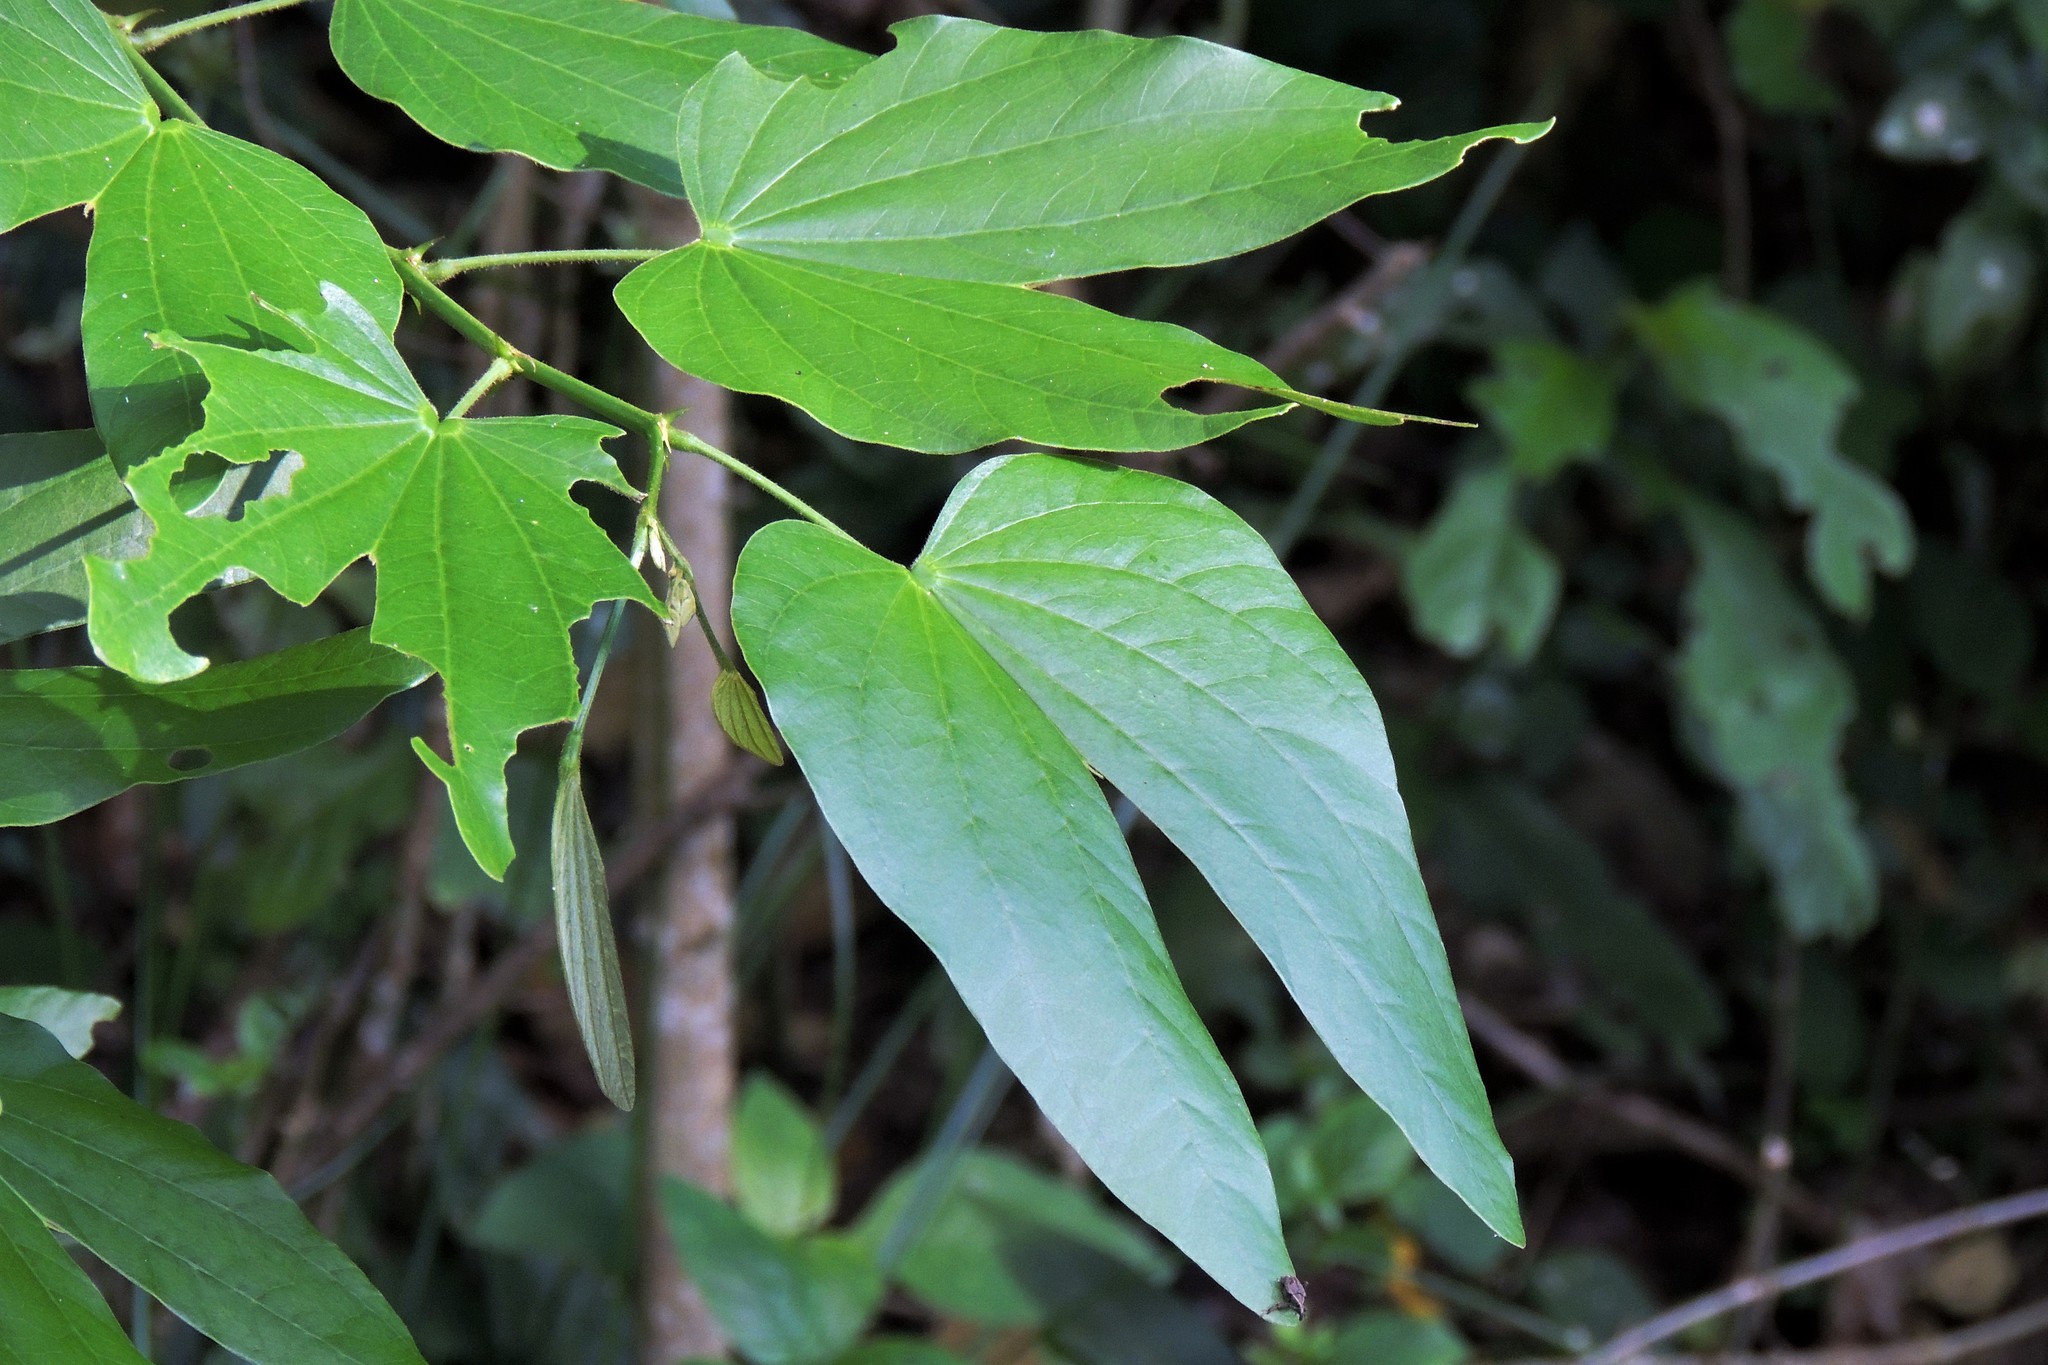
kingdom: Plantae
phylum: Tracheophyta
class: Magnoliopsida
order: Fabales
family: Fabaceae
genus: Bauhinia
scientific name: Bauhinia forficata
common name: Orchid tree
